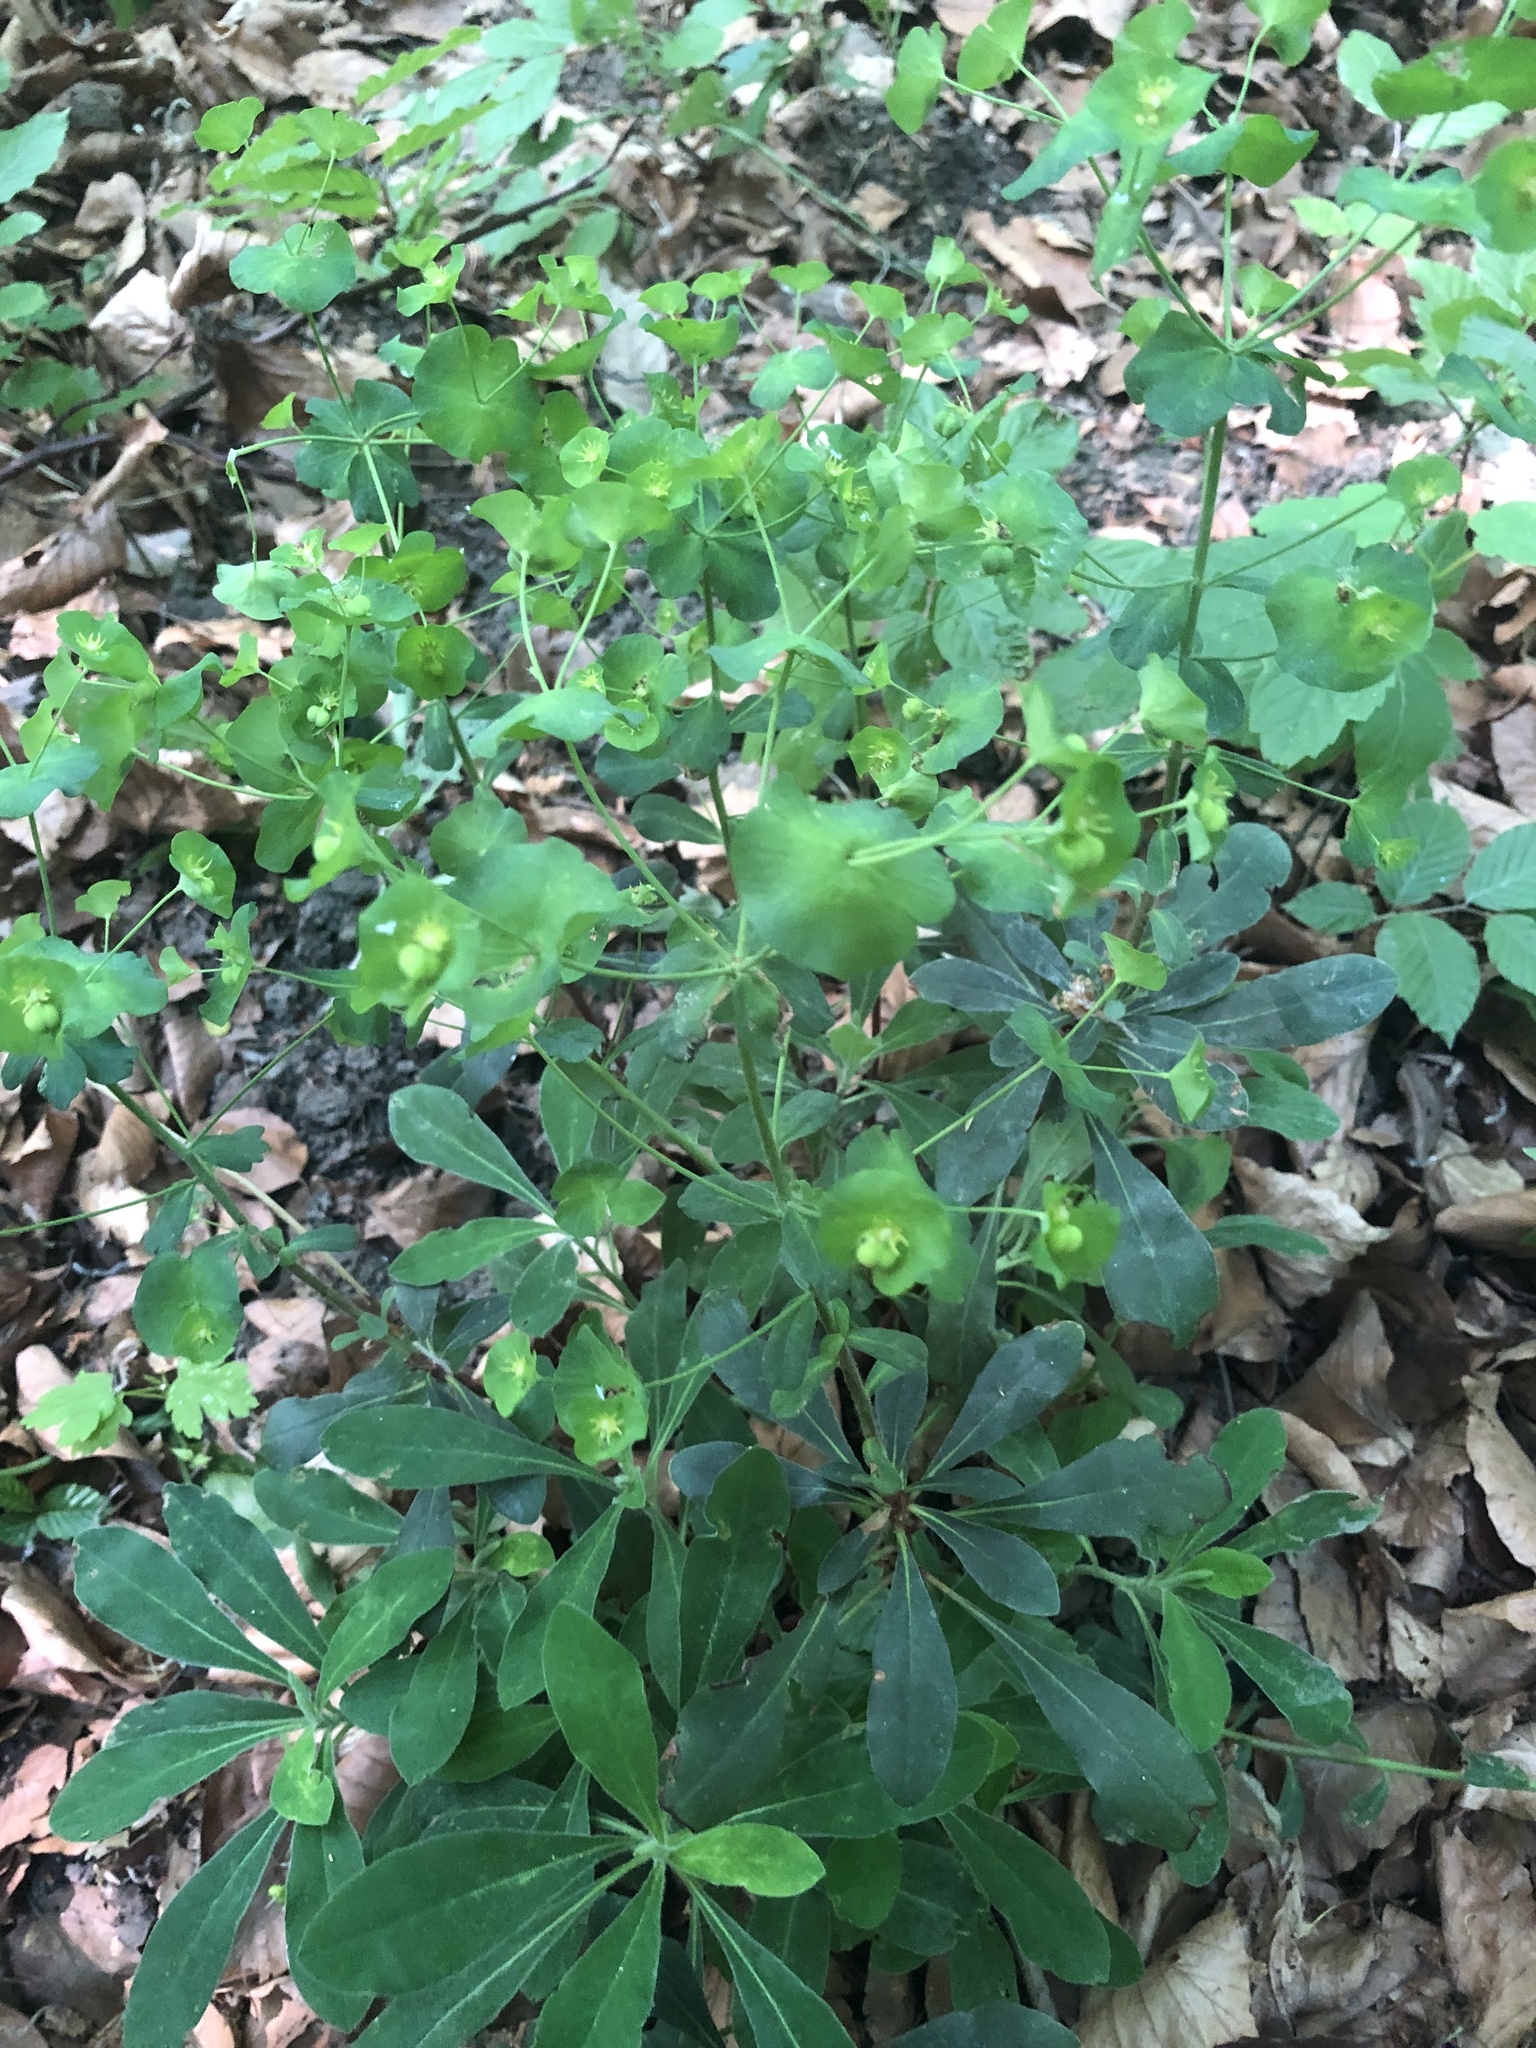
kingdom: Plantae
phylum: Tracheophyta
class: Magnoliopsida
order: Malpighiales
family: Euphorbiaceae
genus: Euphorbia
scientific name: Euphorbia amygdaloides
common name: Wood spurge
